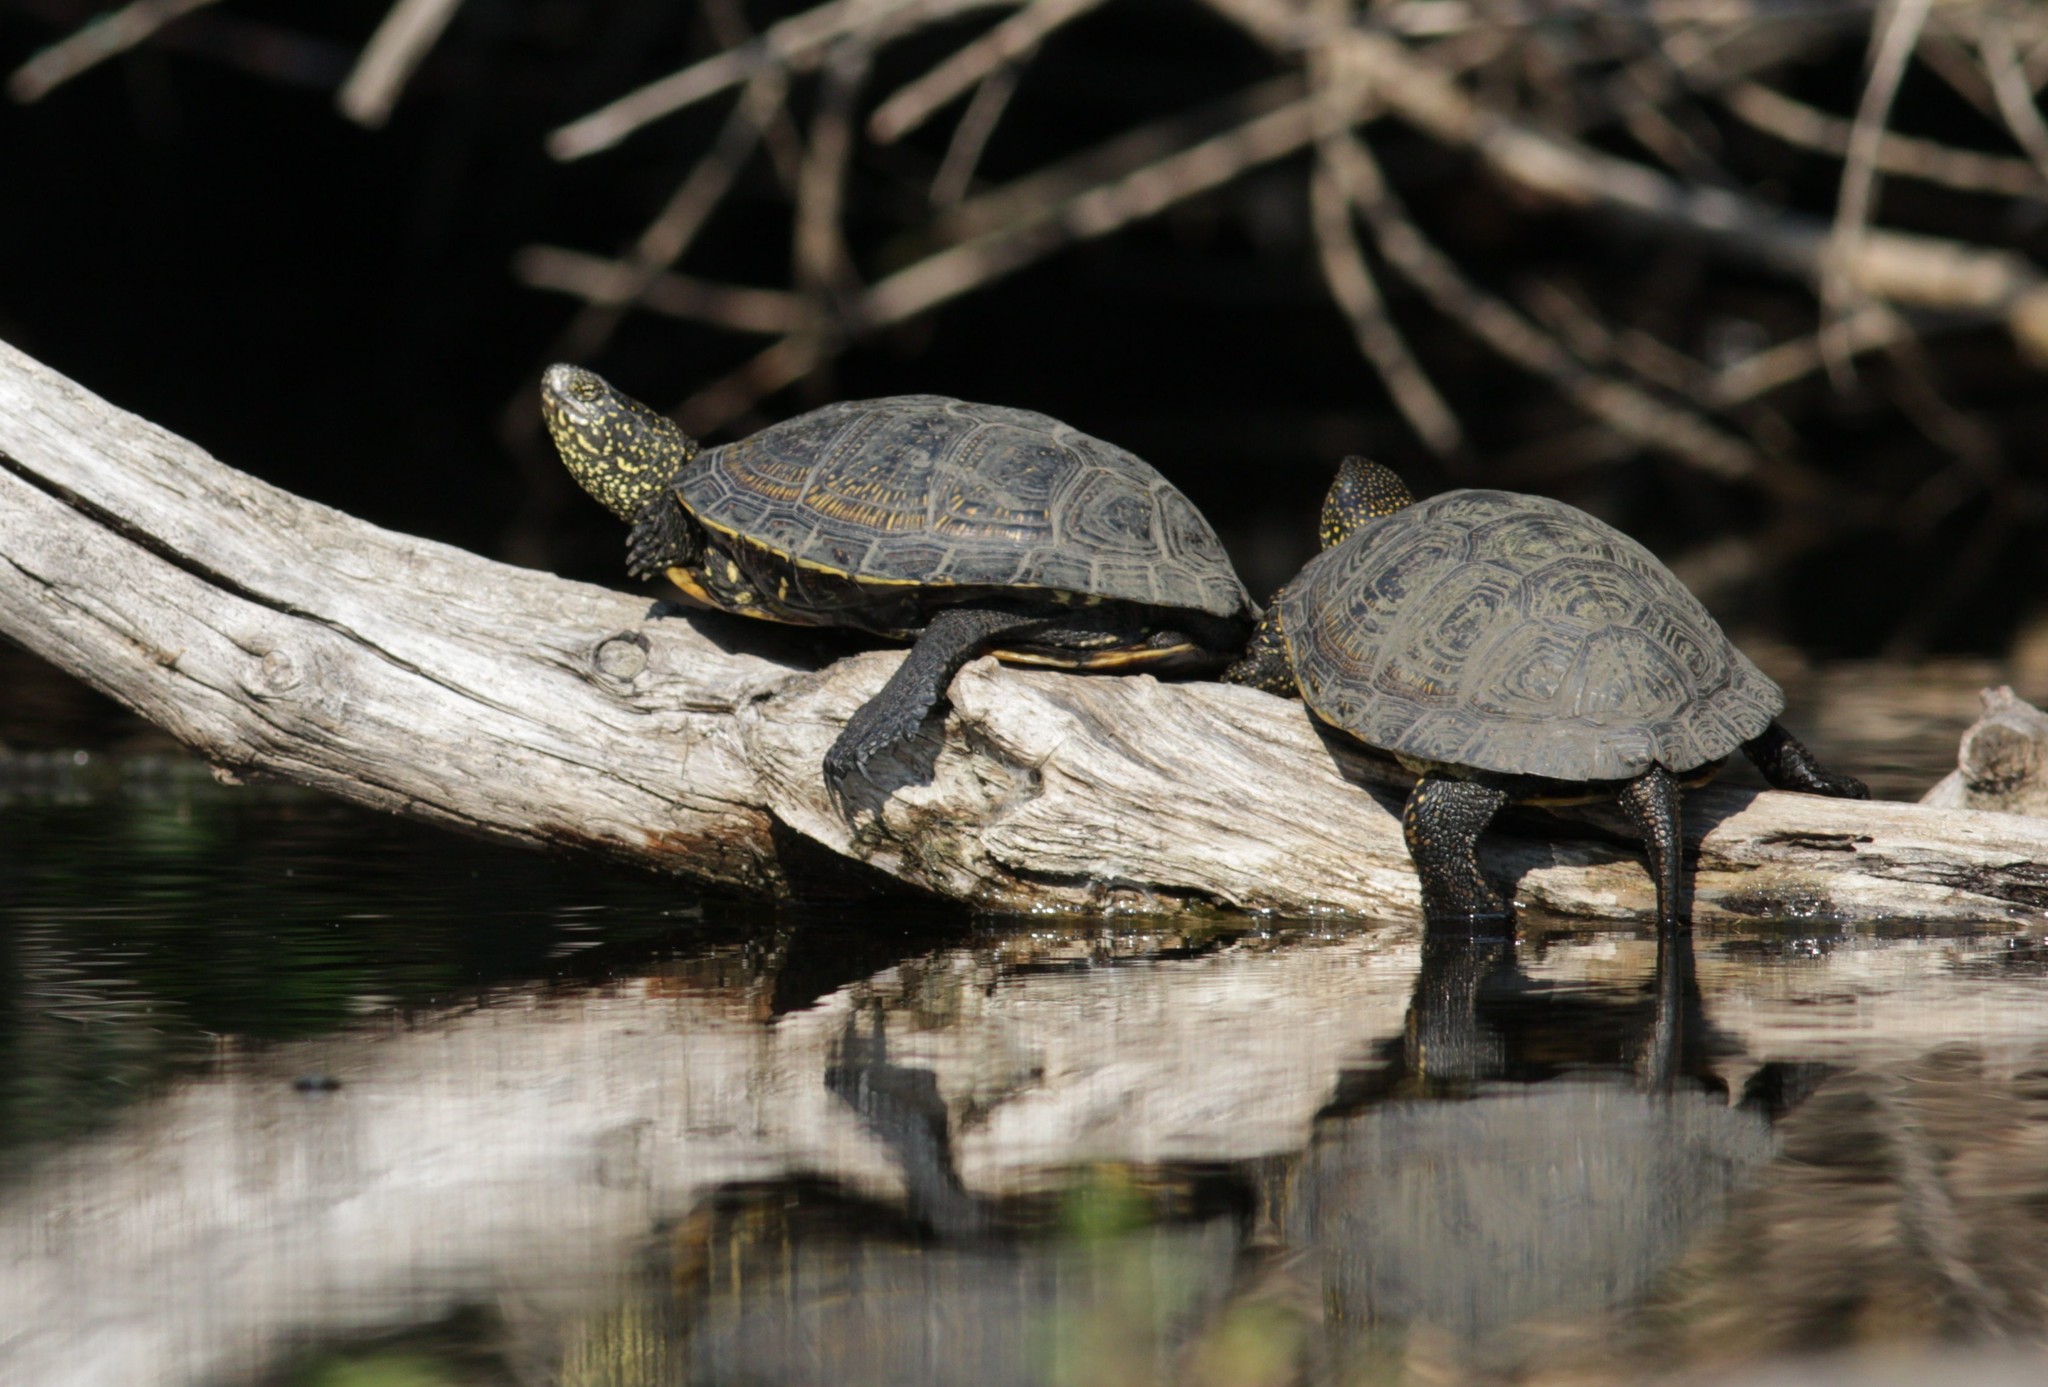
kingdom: Animalia
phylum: Chordata
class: Testudines
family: Emydidae
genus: Emys
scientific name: Emys orbicularis
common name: European pond turtle
